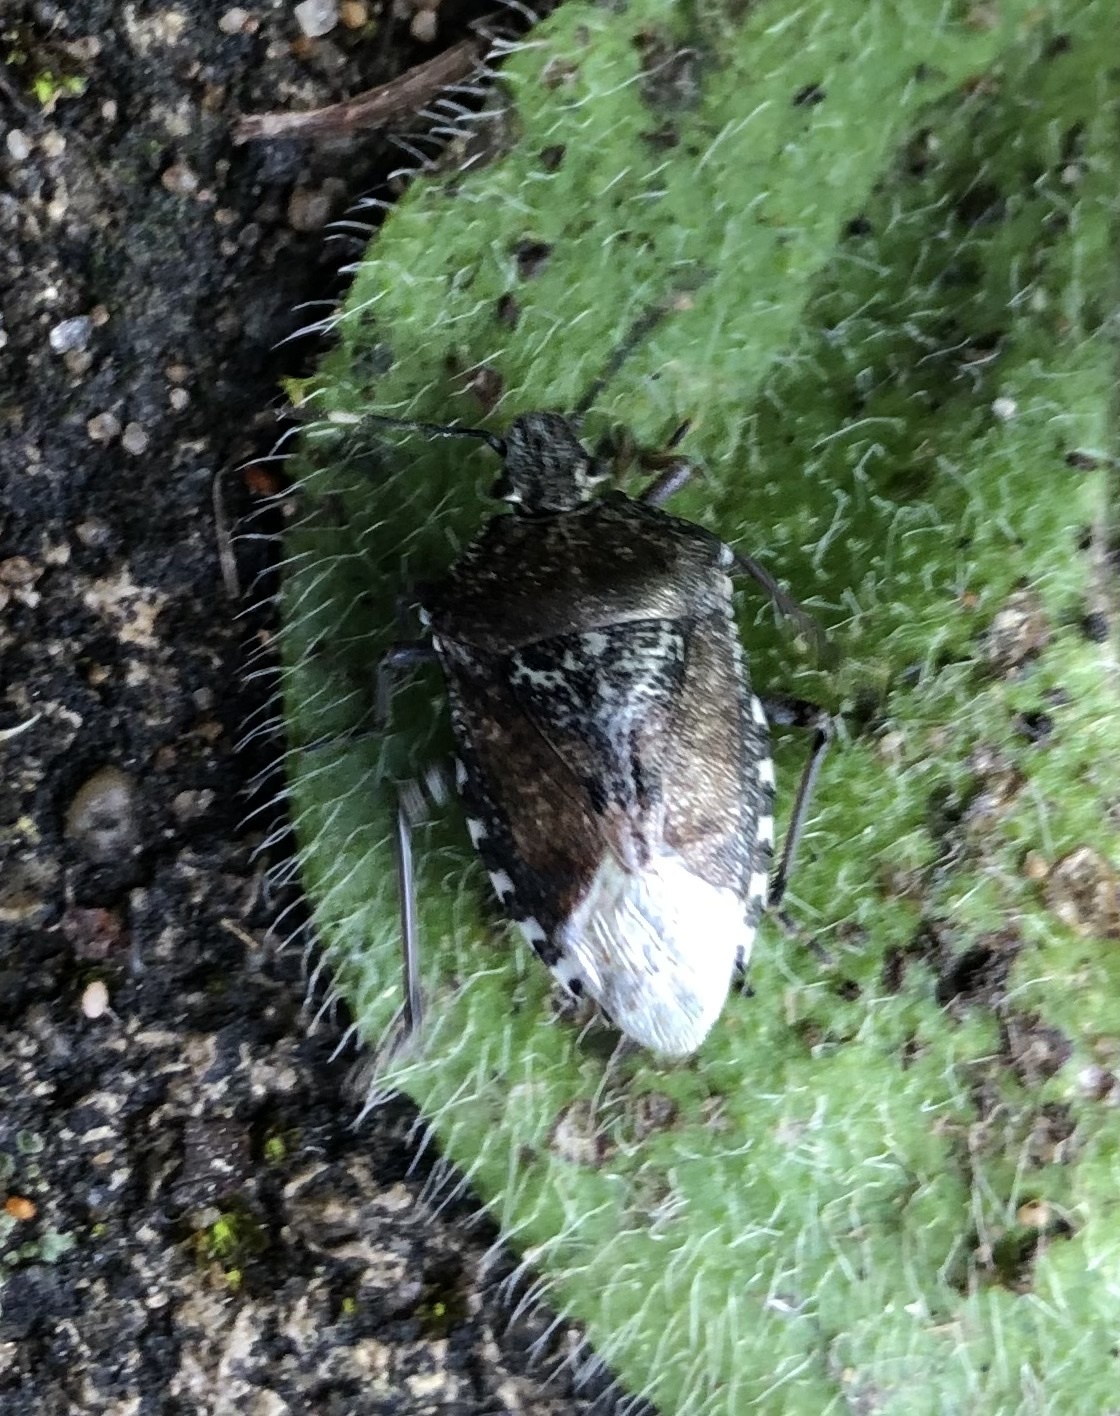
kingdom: Animalia
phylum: Arthropoda
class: Insecta
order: Hemiptera
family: Pentatomidae
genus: Rhaphigaster
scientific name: Rhaphigaster nebulosa
